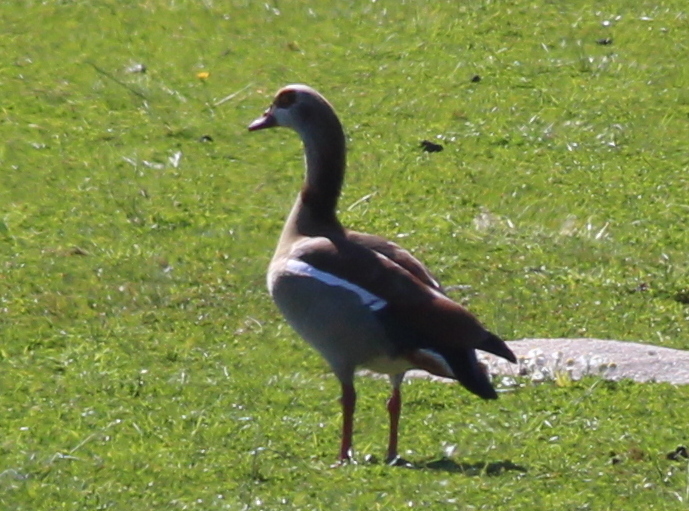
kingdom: Animalia
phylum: Chordata
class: Aves
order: Anseriformes
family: Anatidae
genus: Alopochen
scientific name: Alopochen aegyptiaca
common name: Egyptian goose
